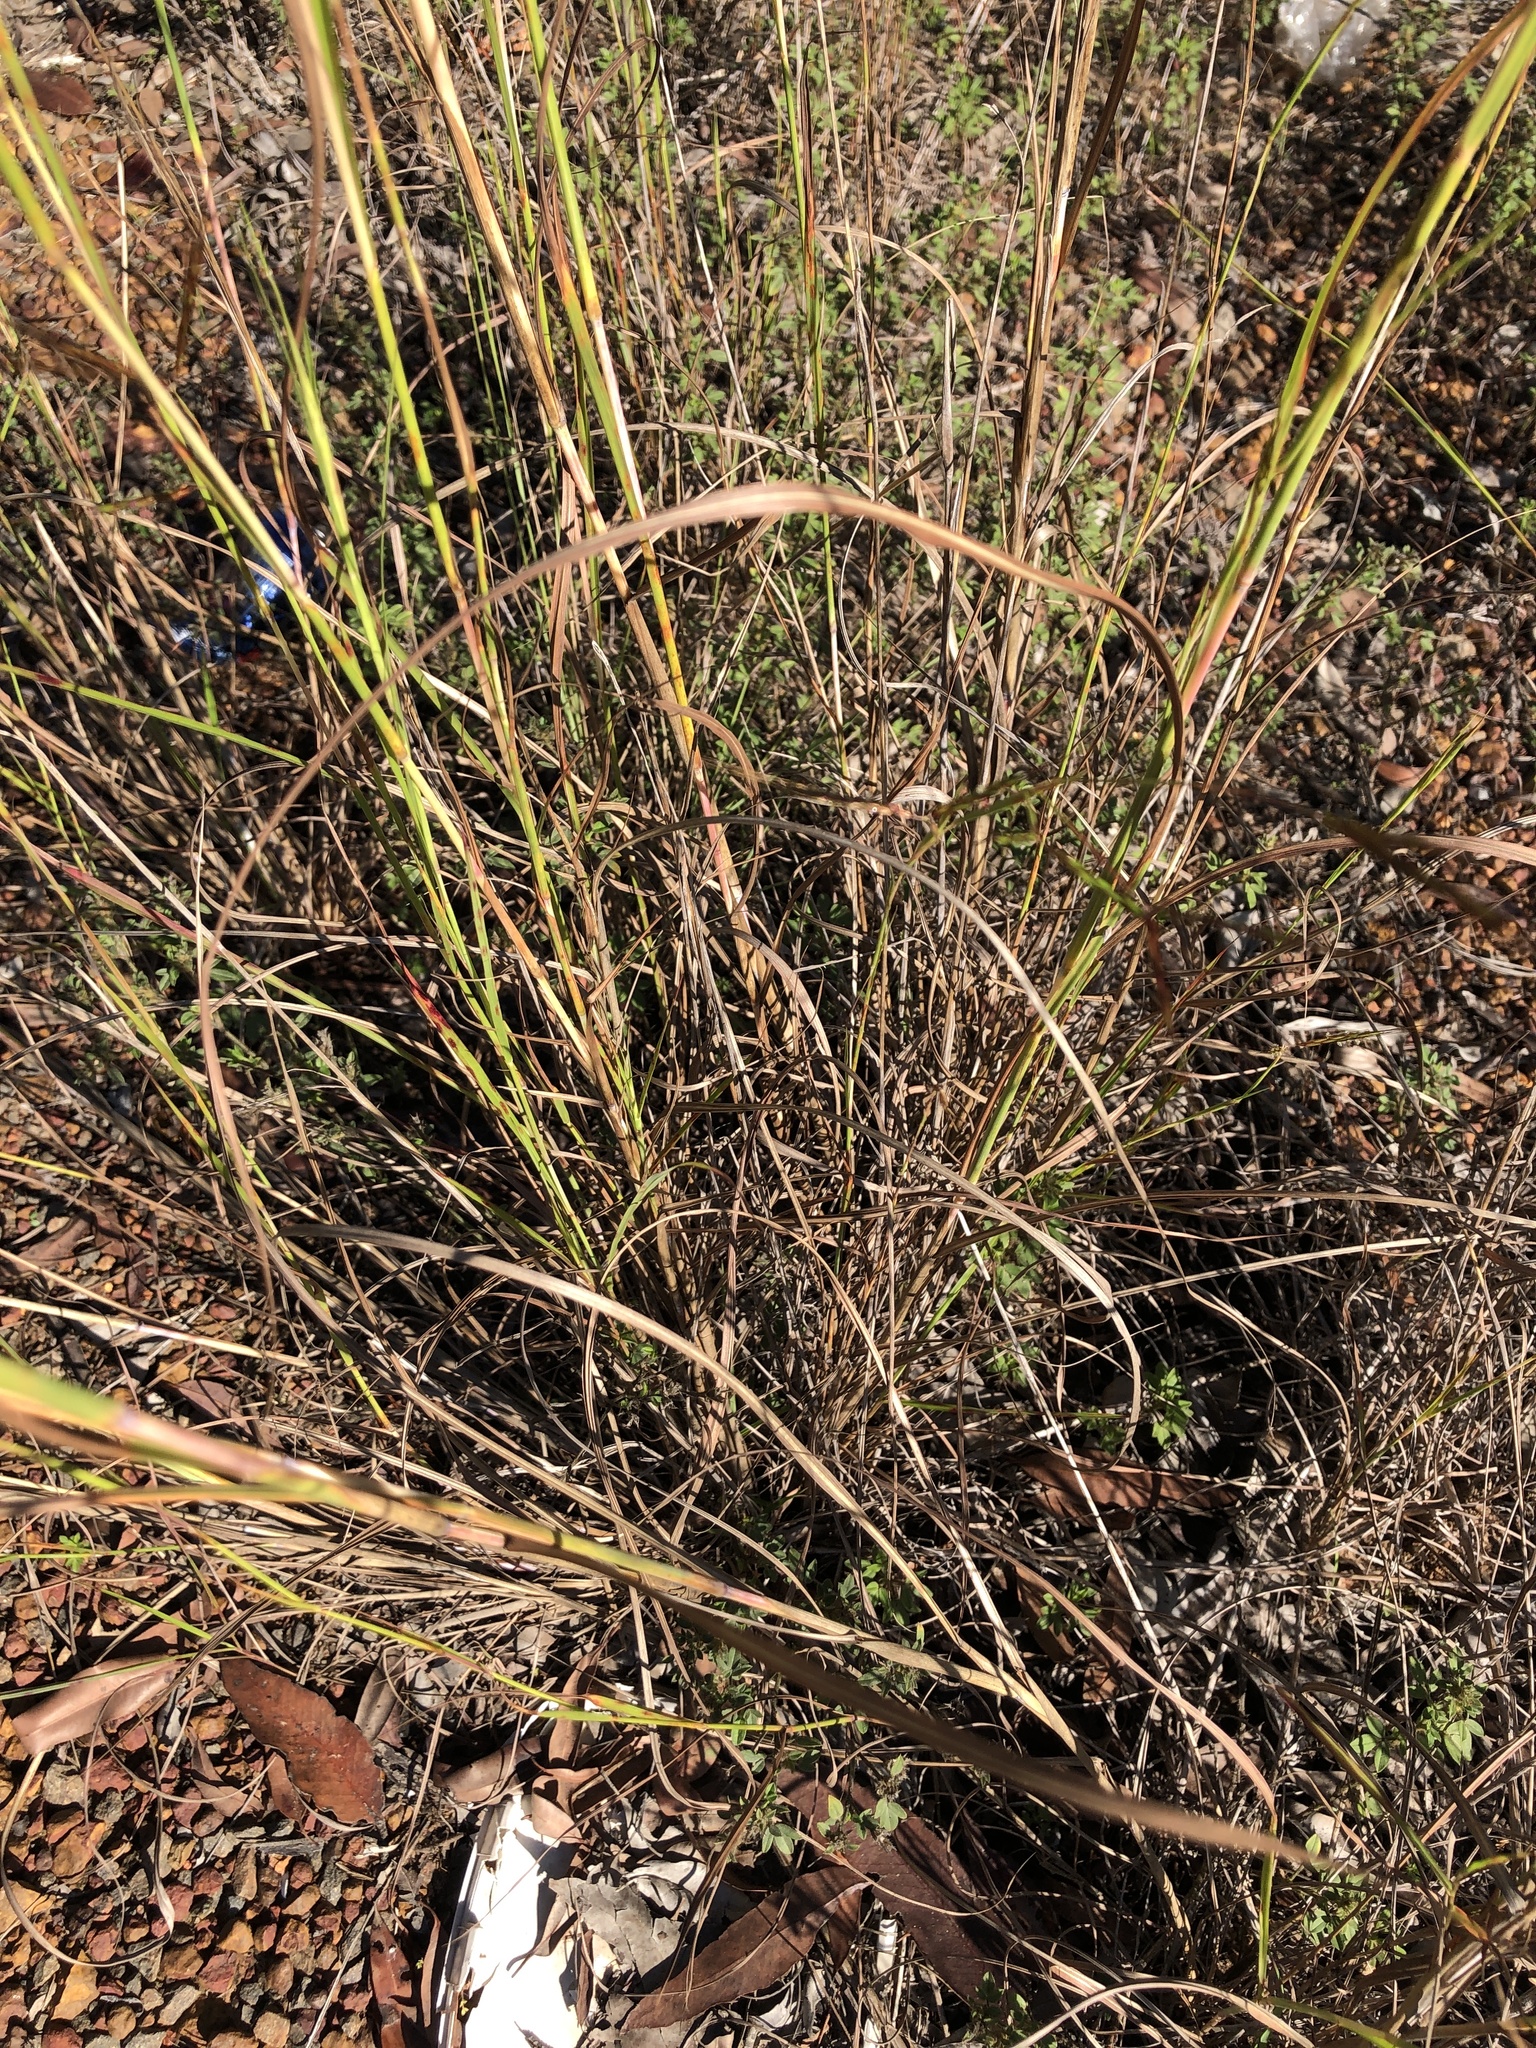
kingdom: Plantae
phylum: Tracheophyta
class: Liliopsida
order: Poales
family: Poaceae
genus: Hyparrhenia
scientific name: Hyparrhenia hirta
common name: Thatching grass
